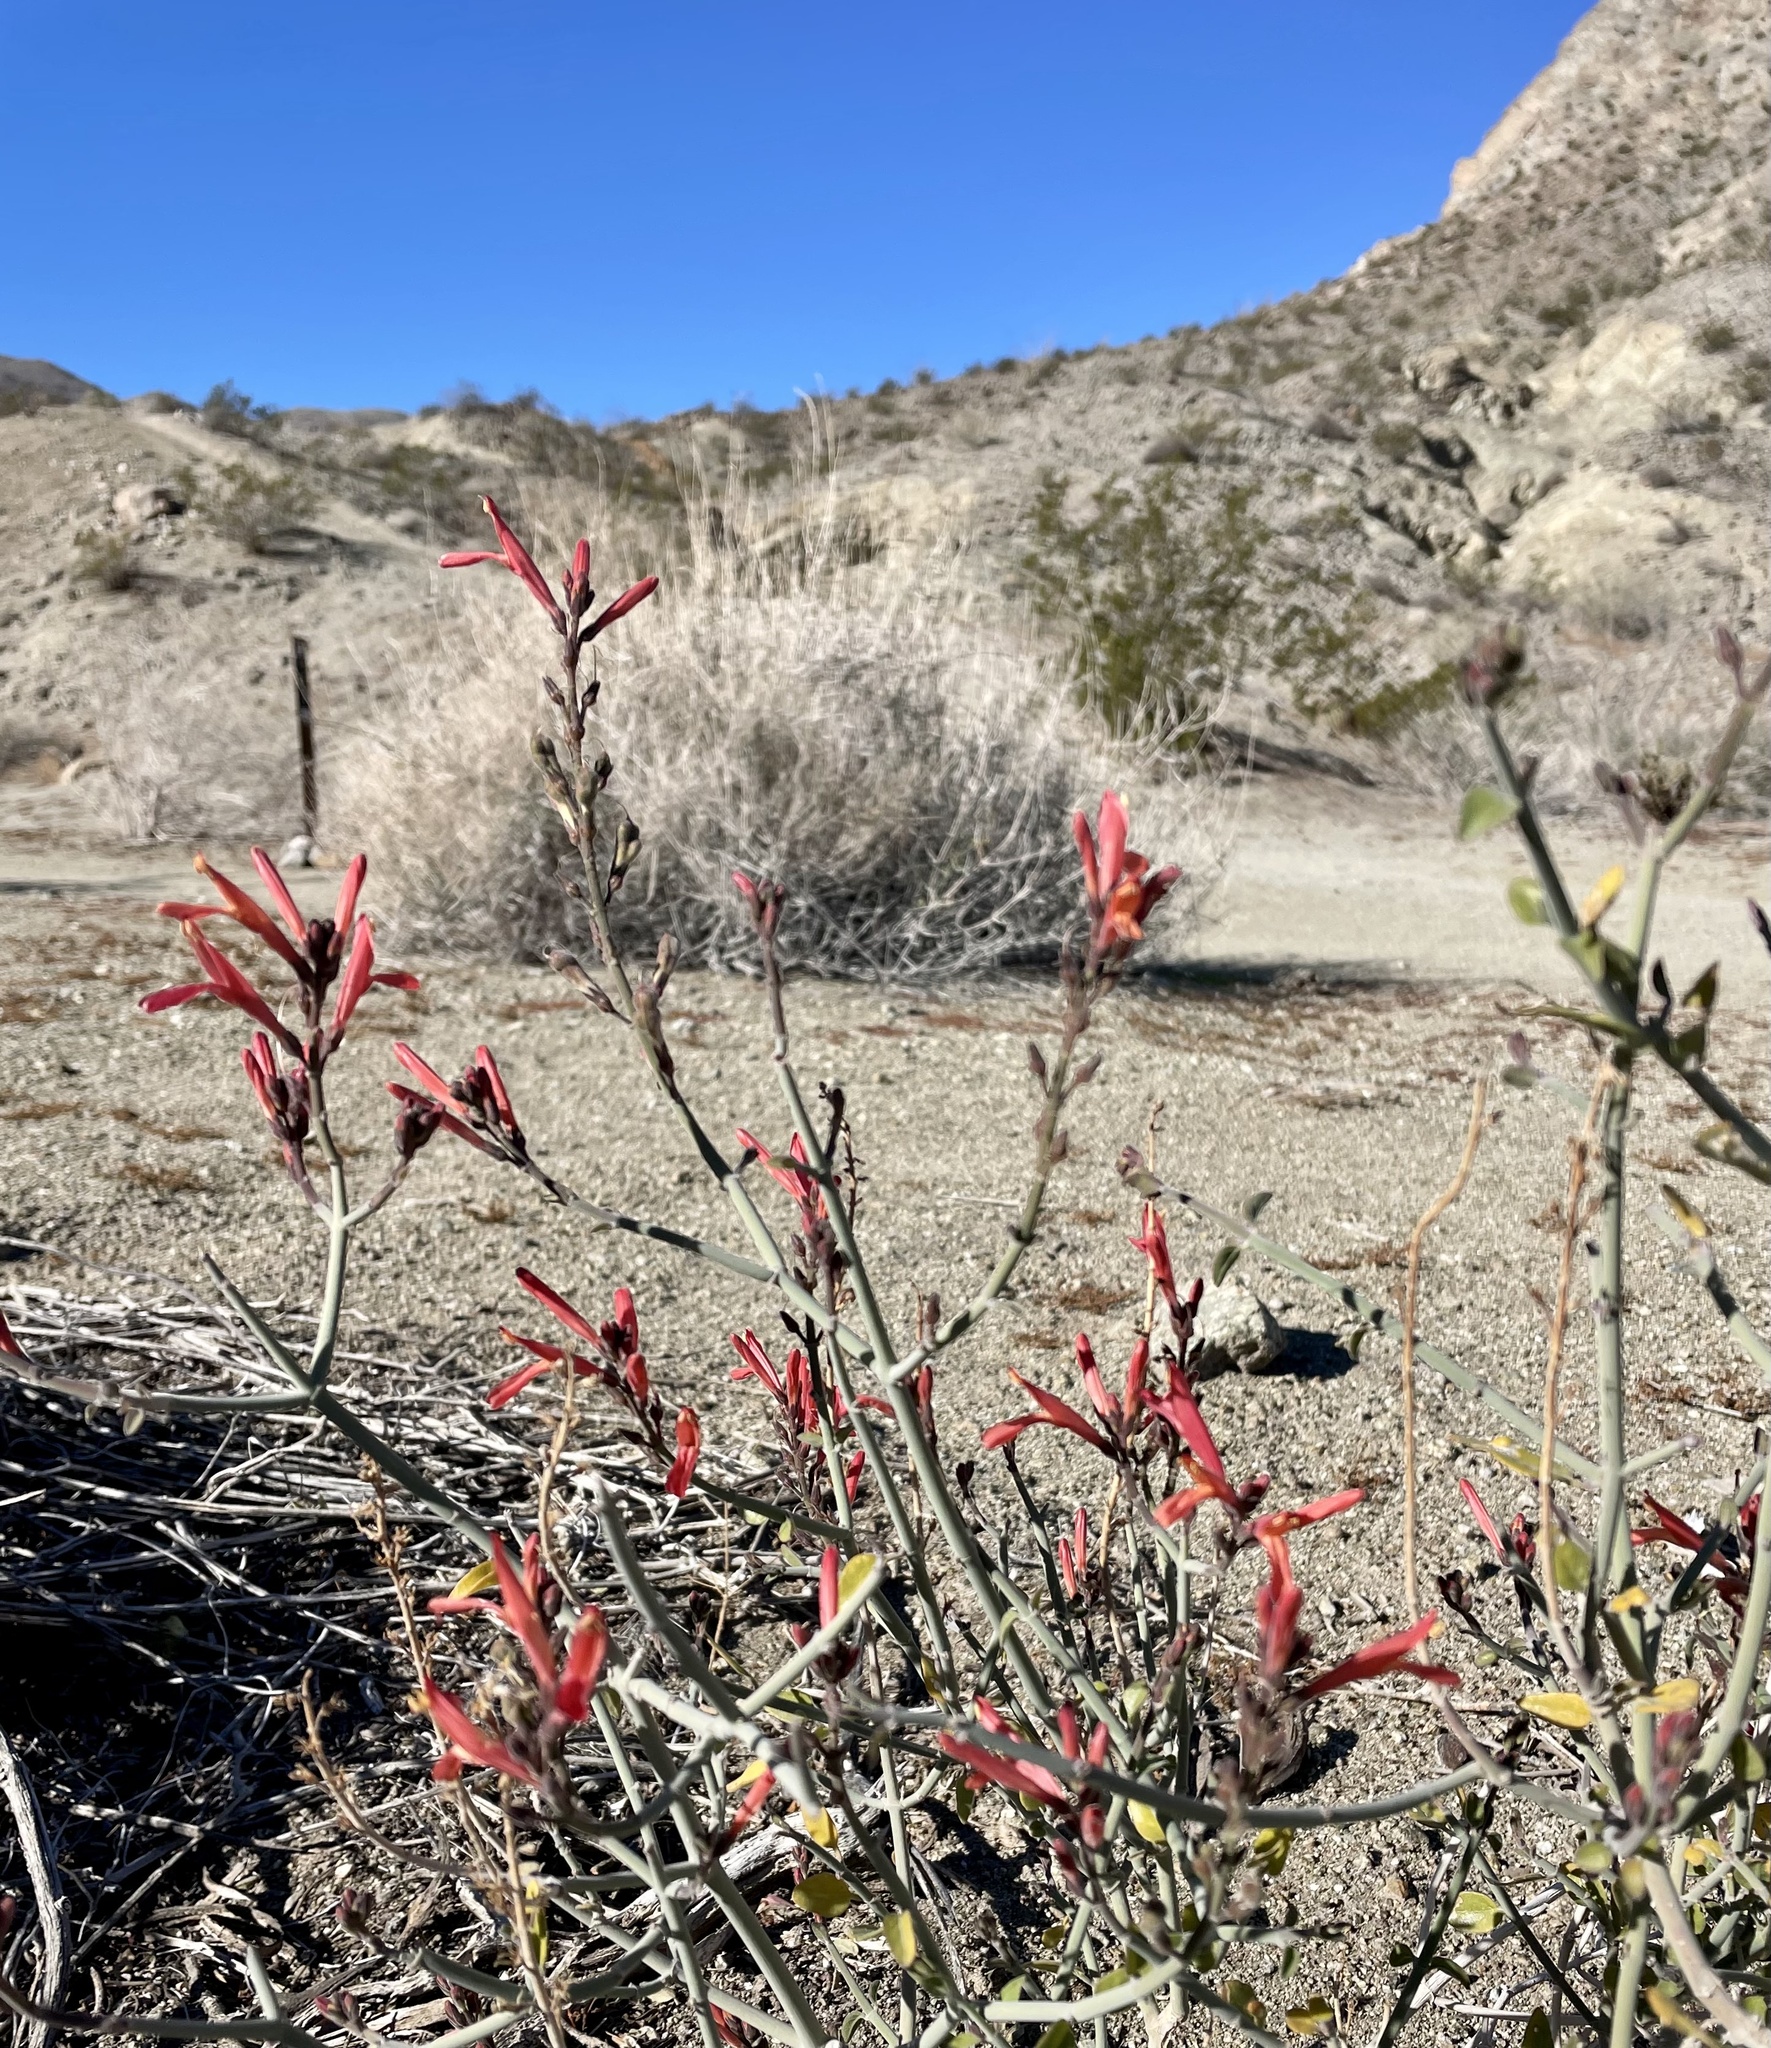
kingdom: Plantae
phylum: Tracheophyta
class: Magnoliopsida
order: Lamiales
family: Acanthaceae
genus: Justicia
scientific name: Justicia californica
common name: Chuparosa-honeysuckle
